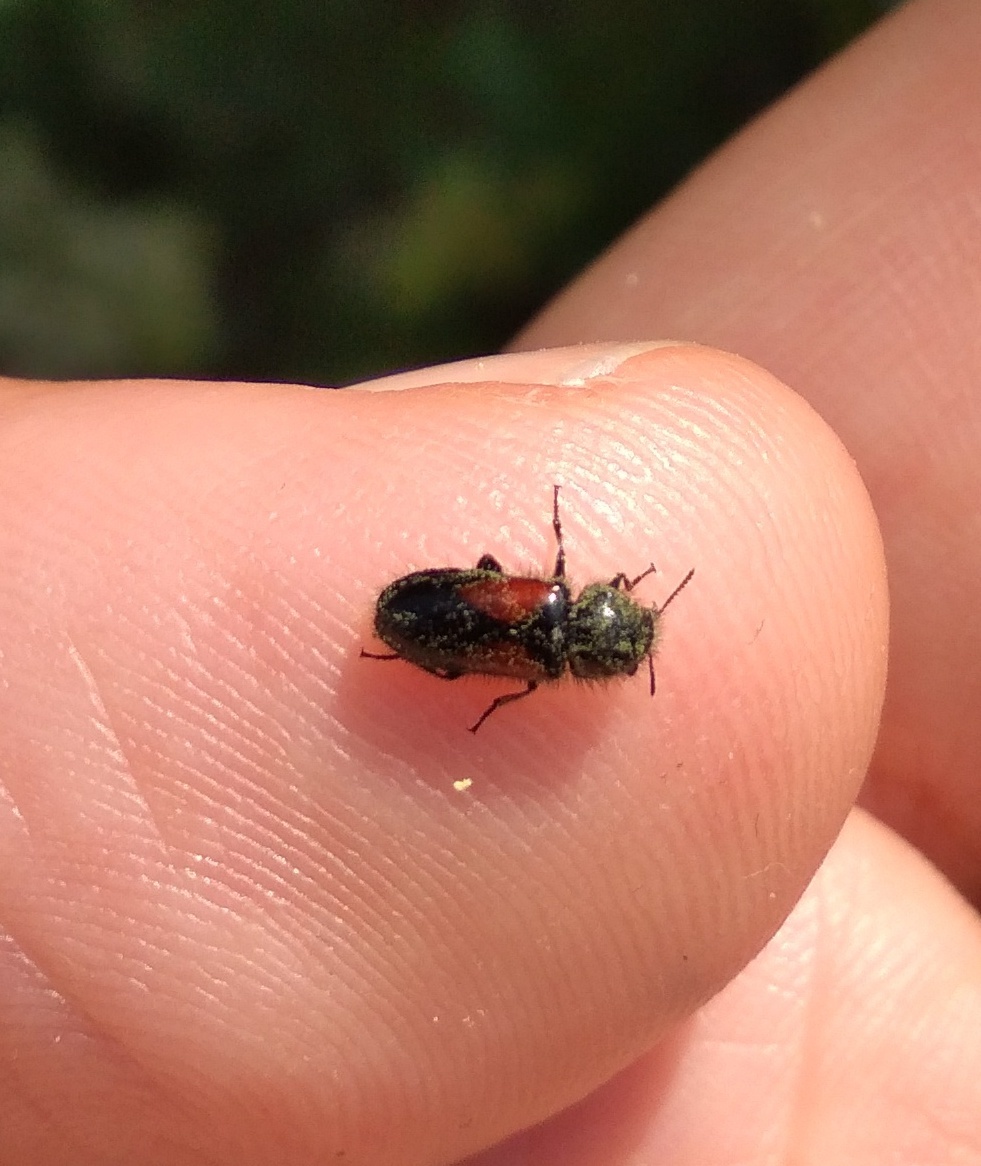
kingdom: Animalia
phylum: Arthropoda
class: Insecta
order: Coleoptera
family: Melyridae
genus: Divales
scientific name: Divales bipustulatus
